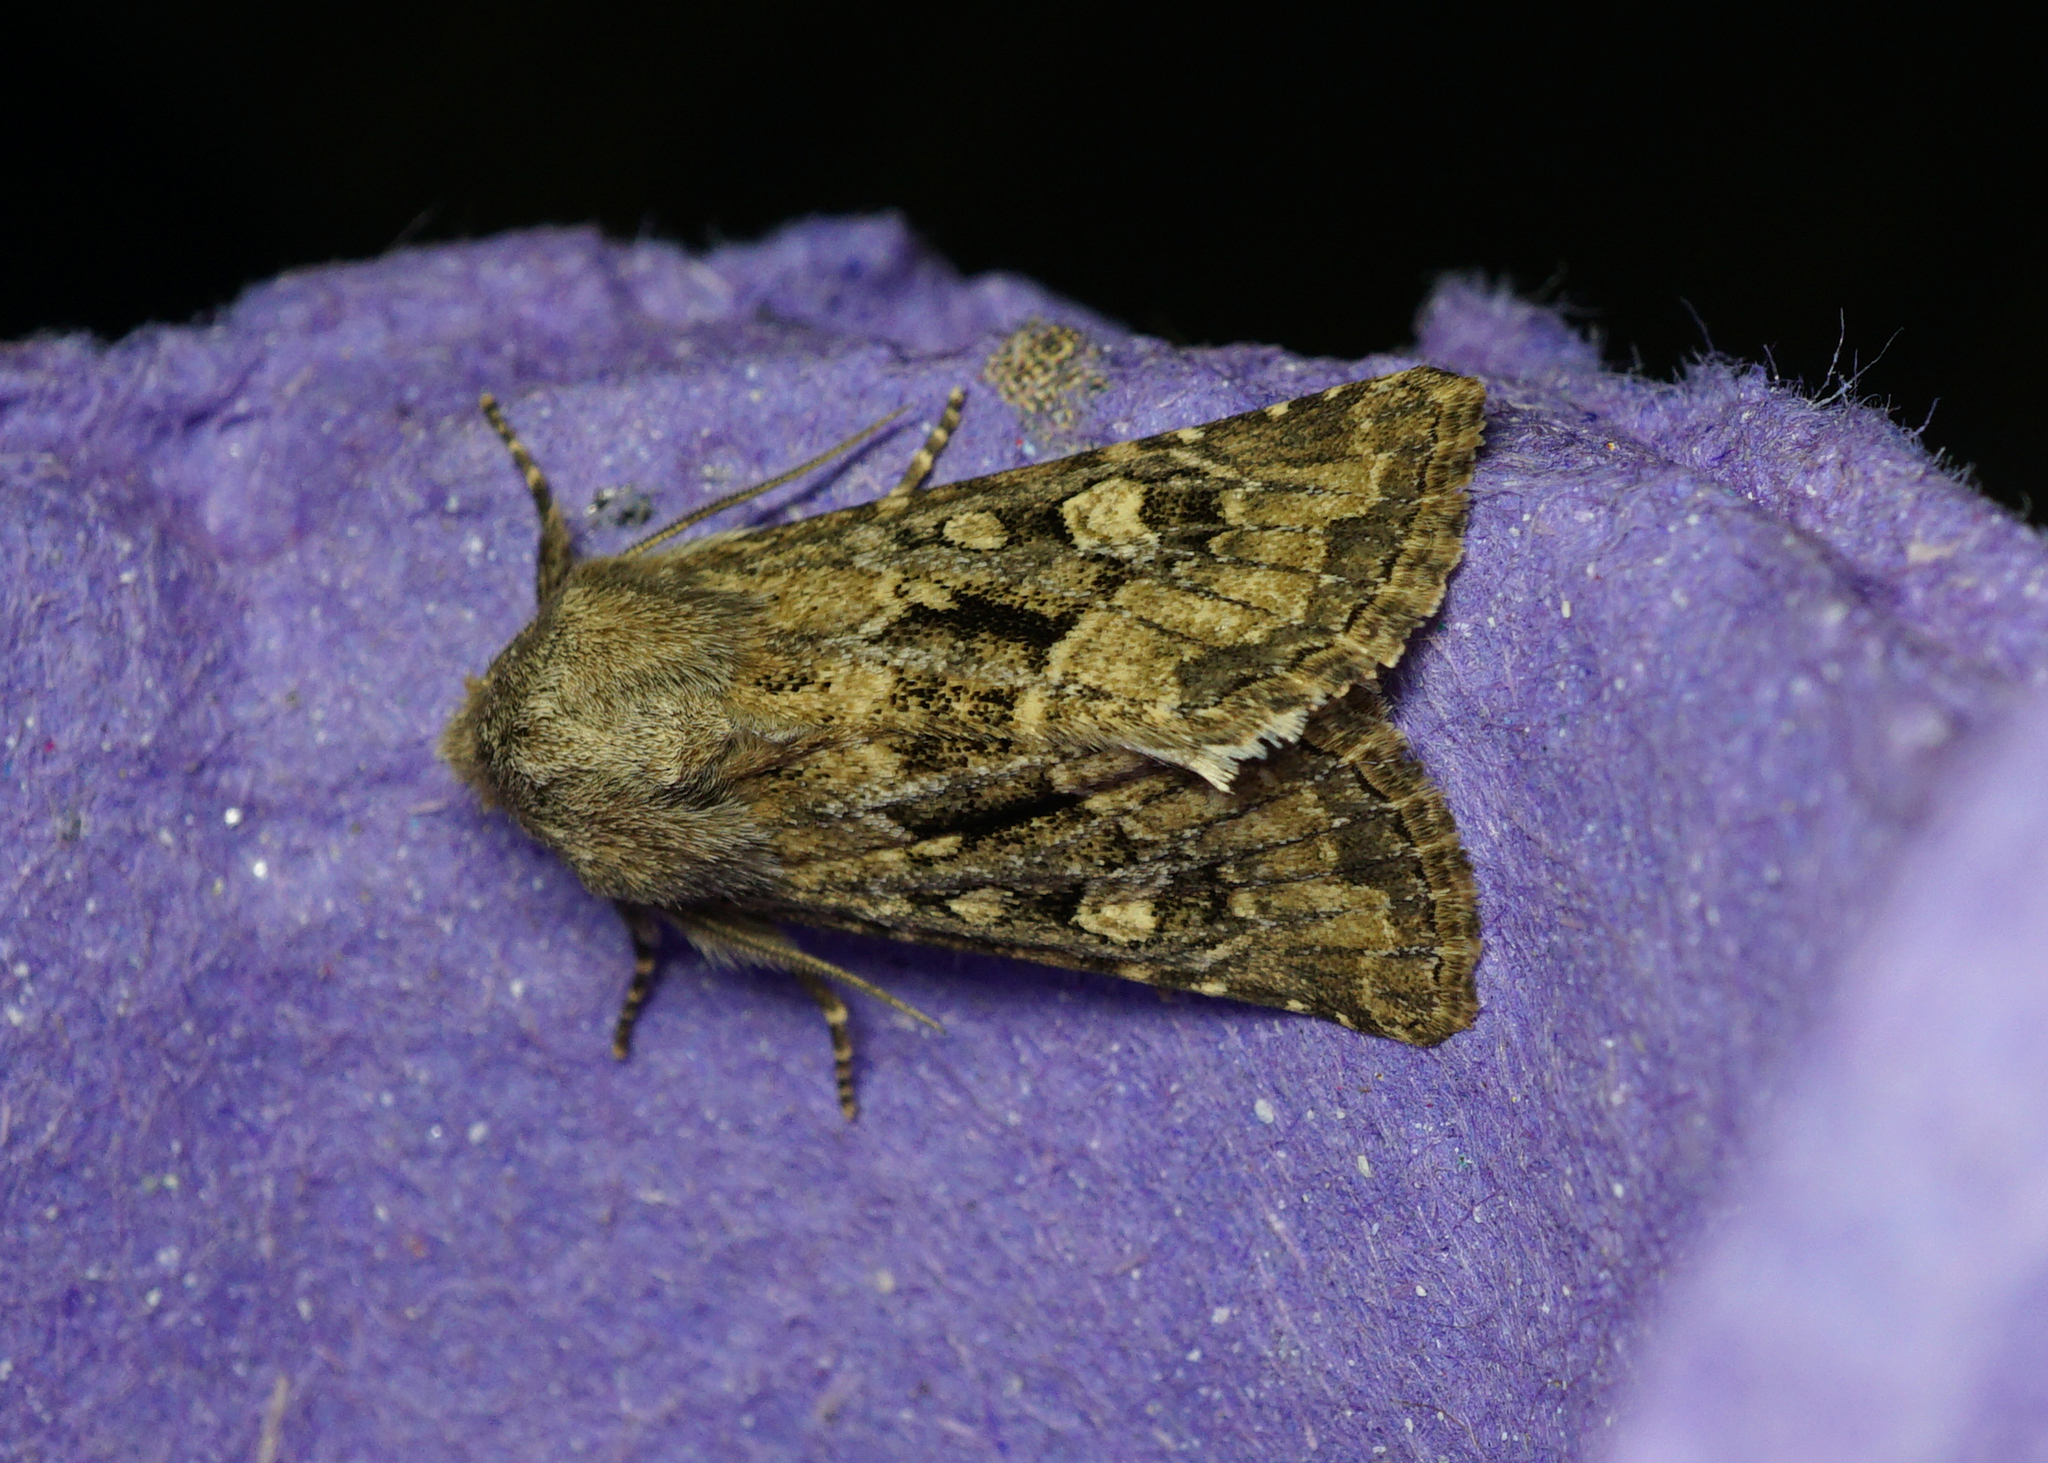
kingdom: Animalia
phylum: Arthropoda
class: Insecta
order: Lepidoptera
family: Noctuidae
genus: Luperina
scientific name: Luperina testacea
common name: Flounced rustic
